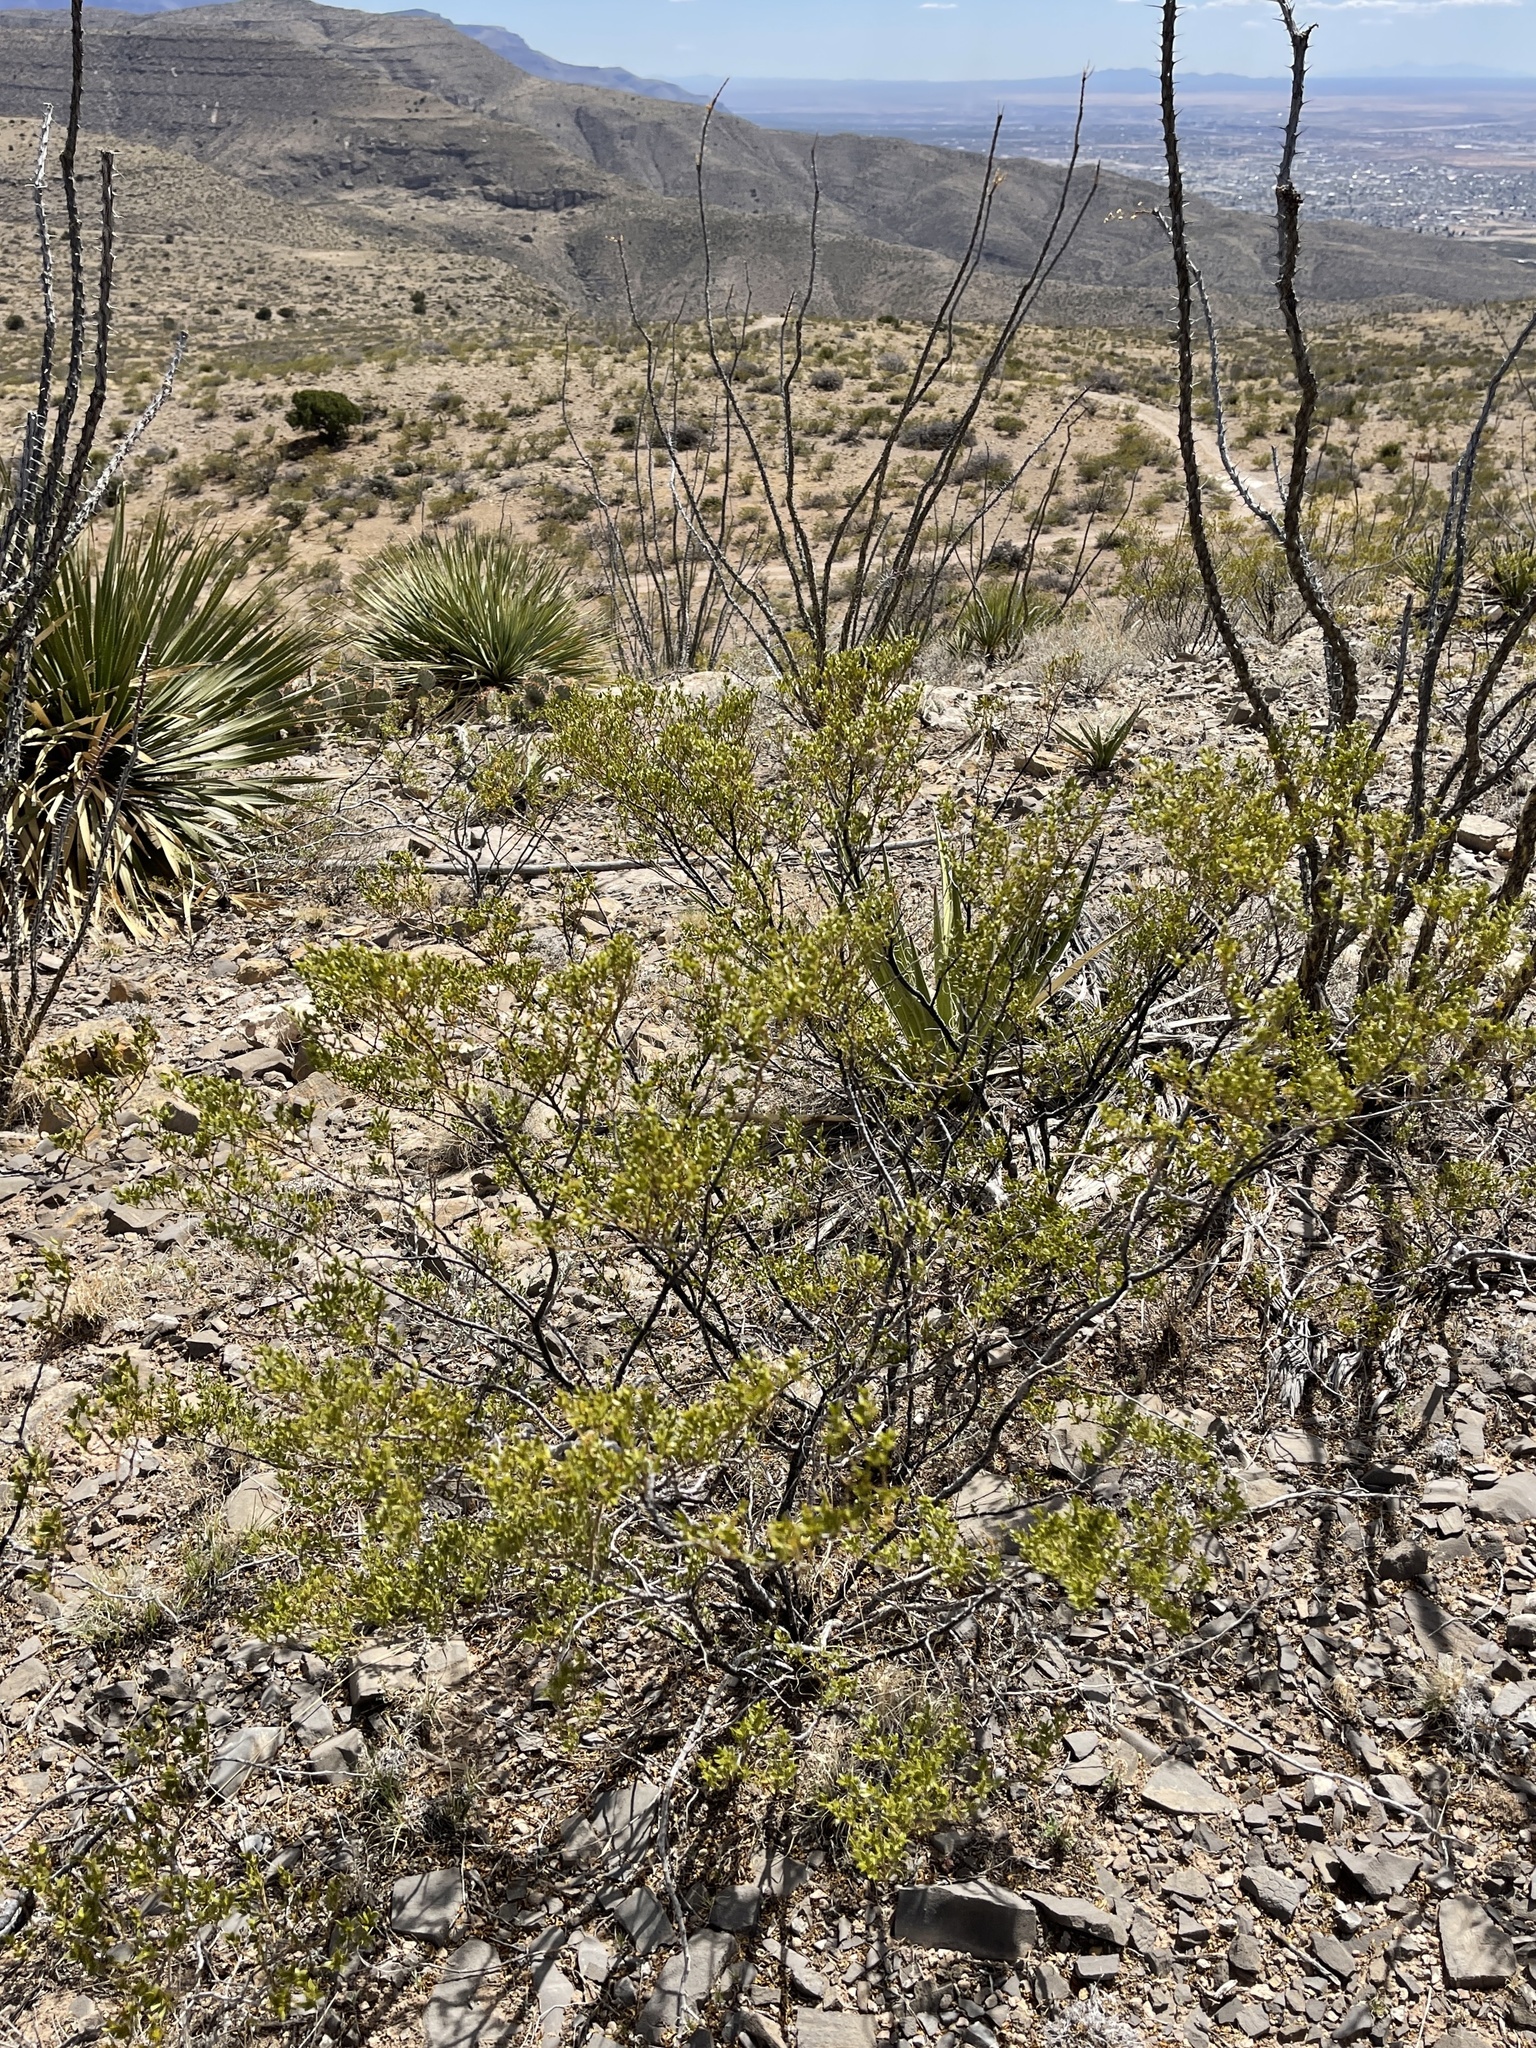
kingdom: Plantae
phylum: Tracheophyta
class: Magnoliopsida
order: Zygophyllales
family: Zygophyllaceae
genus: Larrea
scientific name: Larrea tridentata
